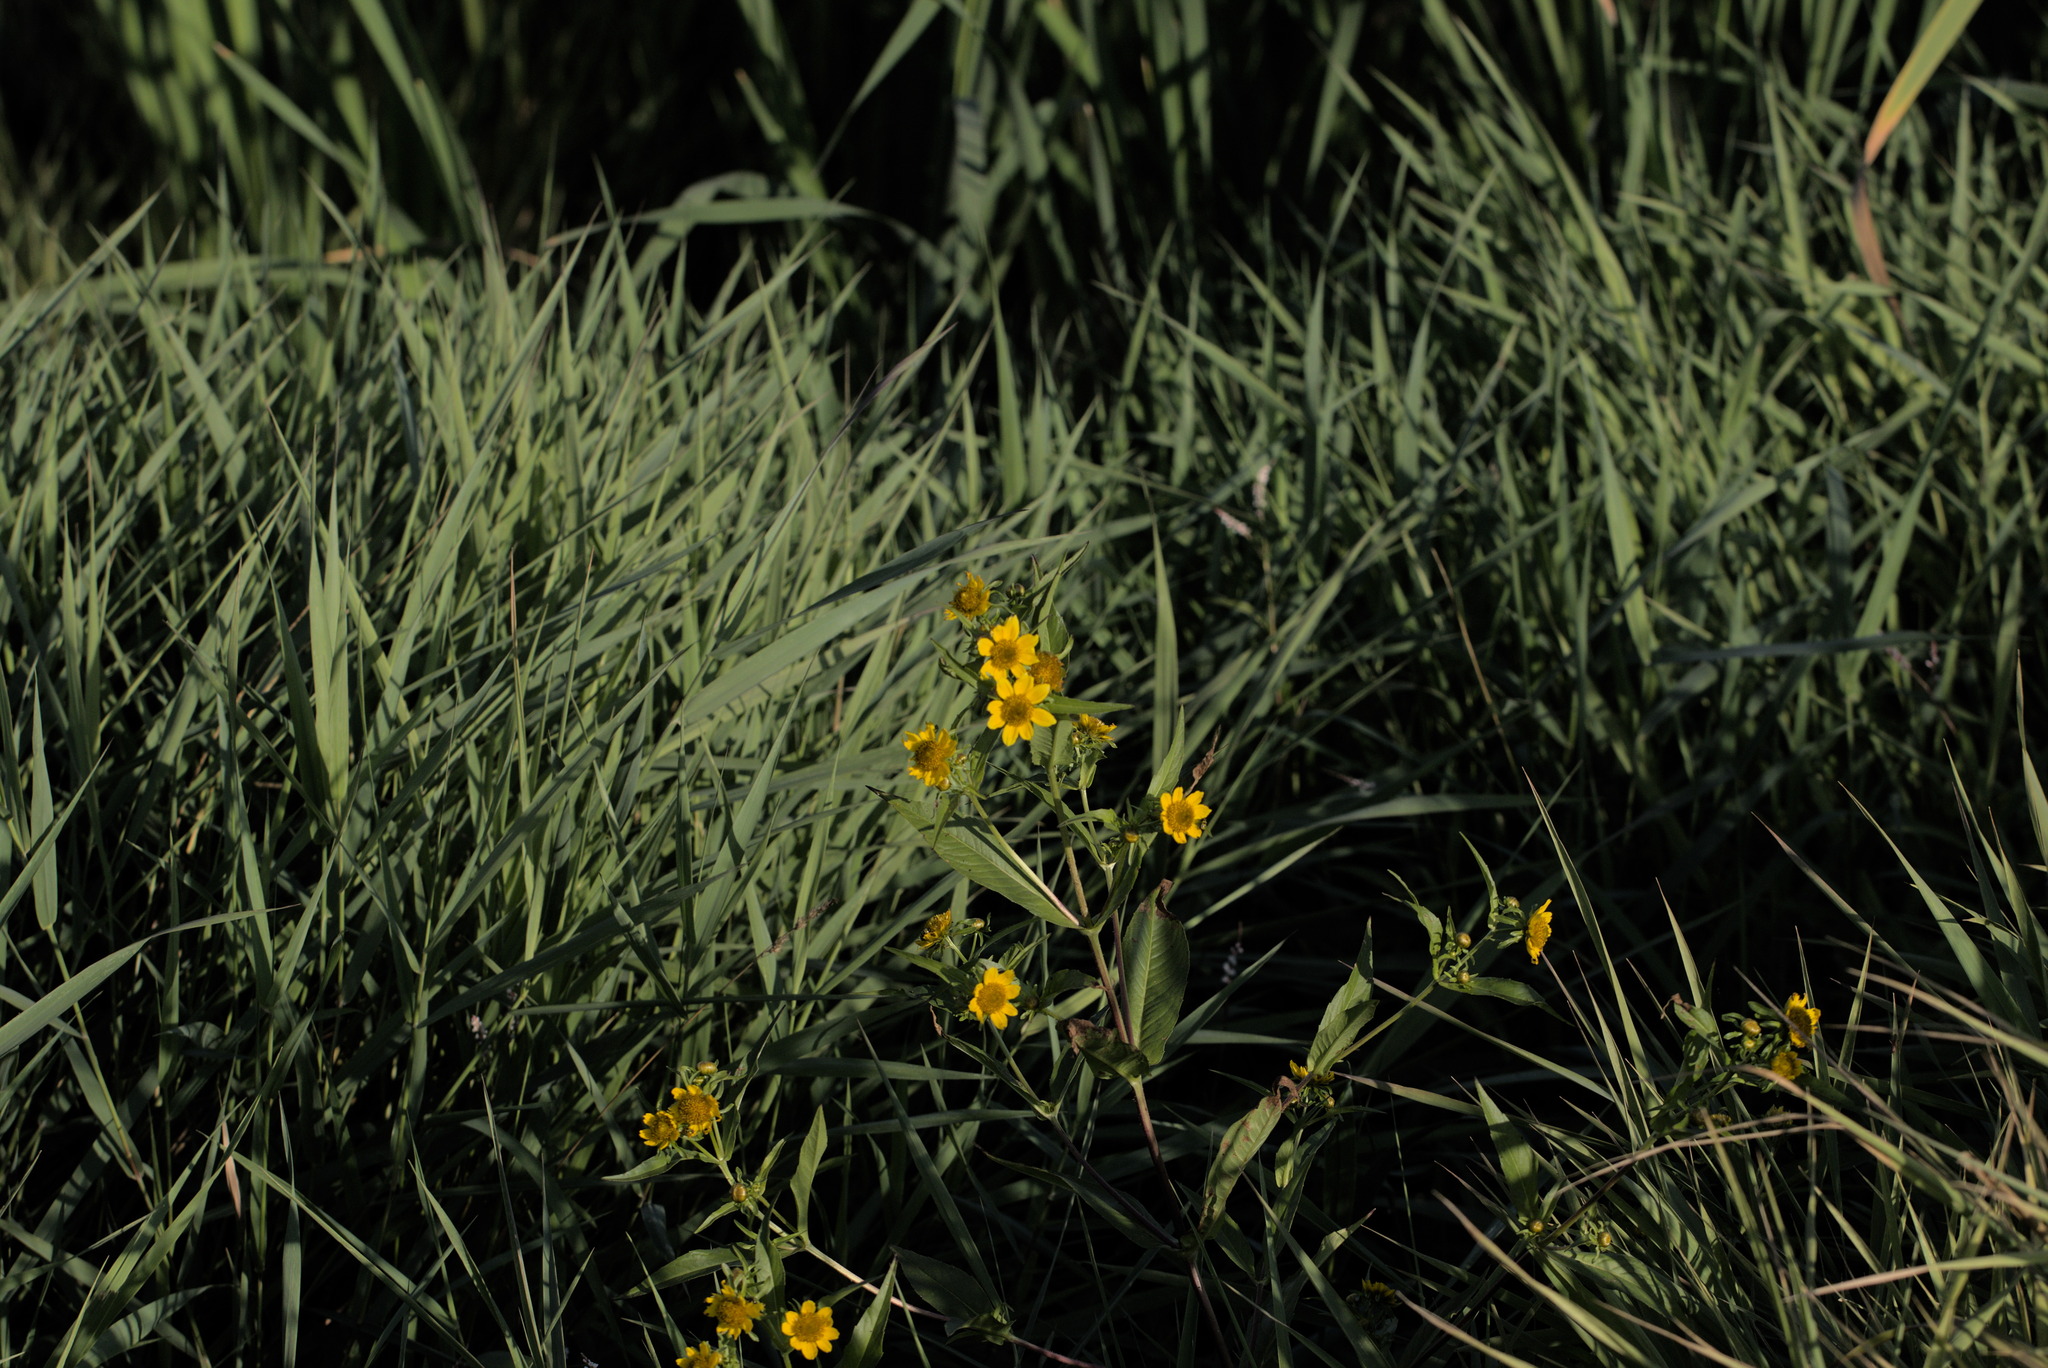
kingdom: Plantae
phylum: Tracheophyta
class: Magnoliopsida
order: Asterales
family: Asteraceae
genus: Bidens
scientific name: Bidens cernua
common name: Nodding bur-marigold
